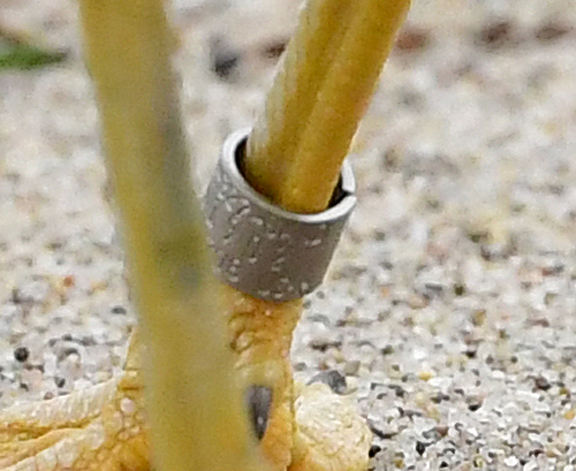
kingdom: Animalia
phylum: Chordata
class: Aves
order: Charadriiformes
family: Laridae
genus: Larus
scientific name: Larus delawarensis
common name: Ring-billed gull
